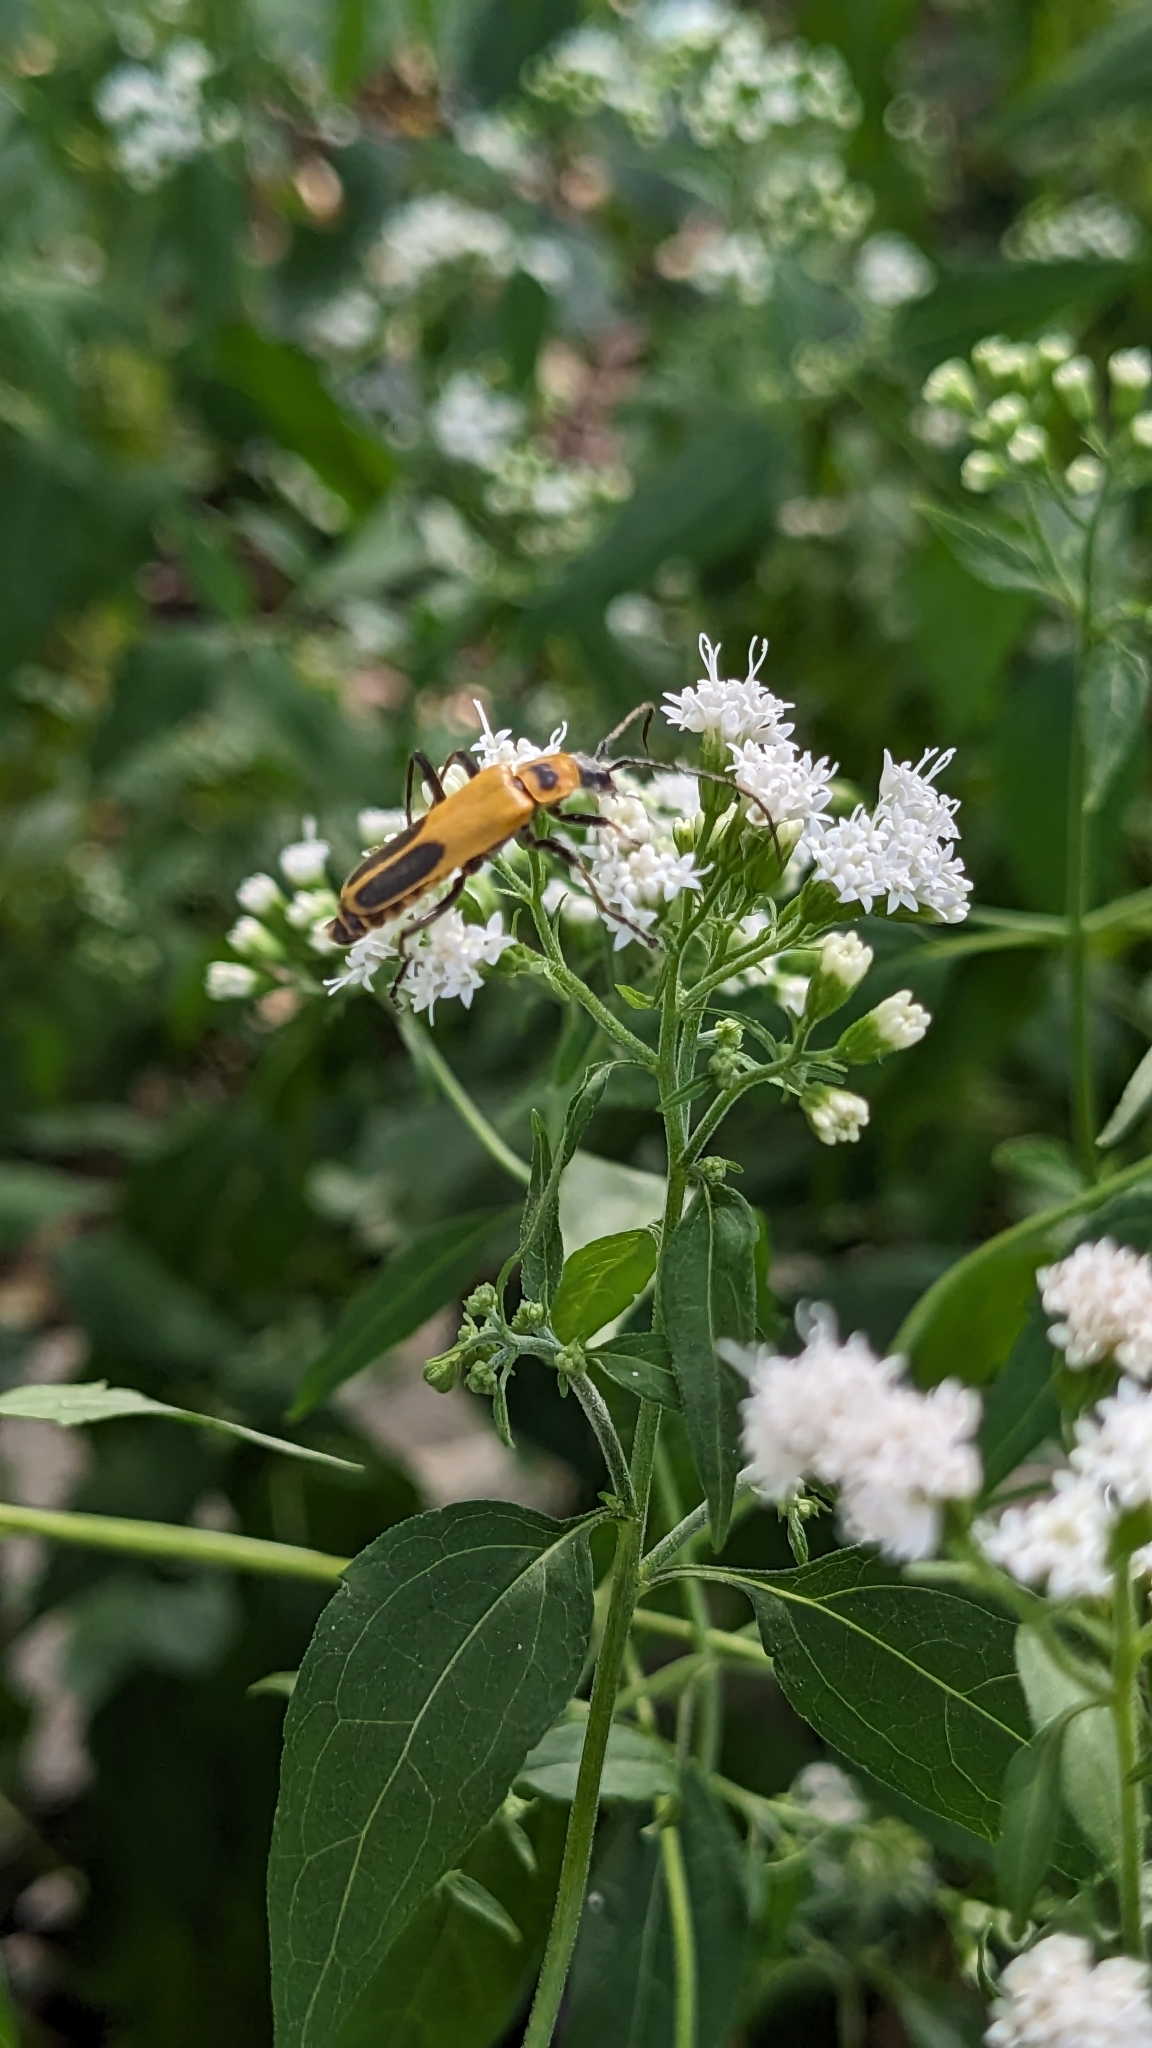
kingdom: Animalia
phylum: Arthropoda
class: Insecta
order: Coleoptera
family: Cantharidae
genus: Chauliognathus
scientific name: Chauliognathus pensylvanicus
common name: Goldenrod soldier beetle
